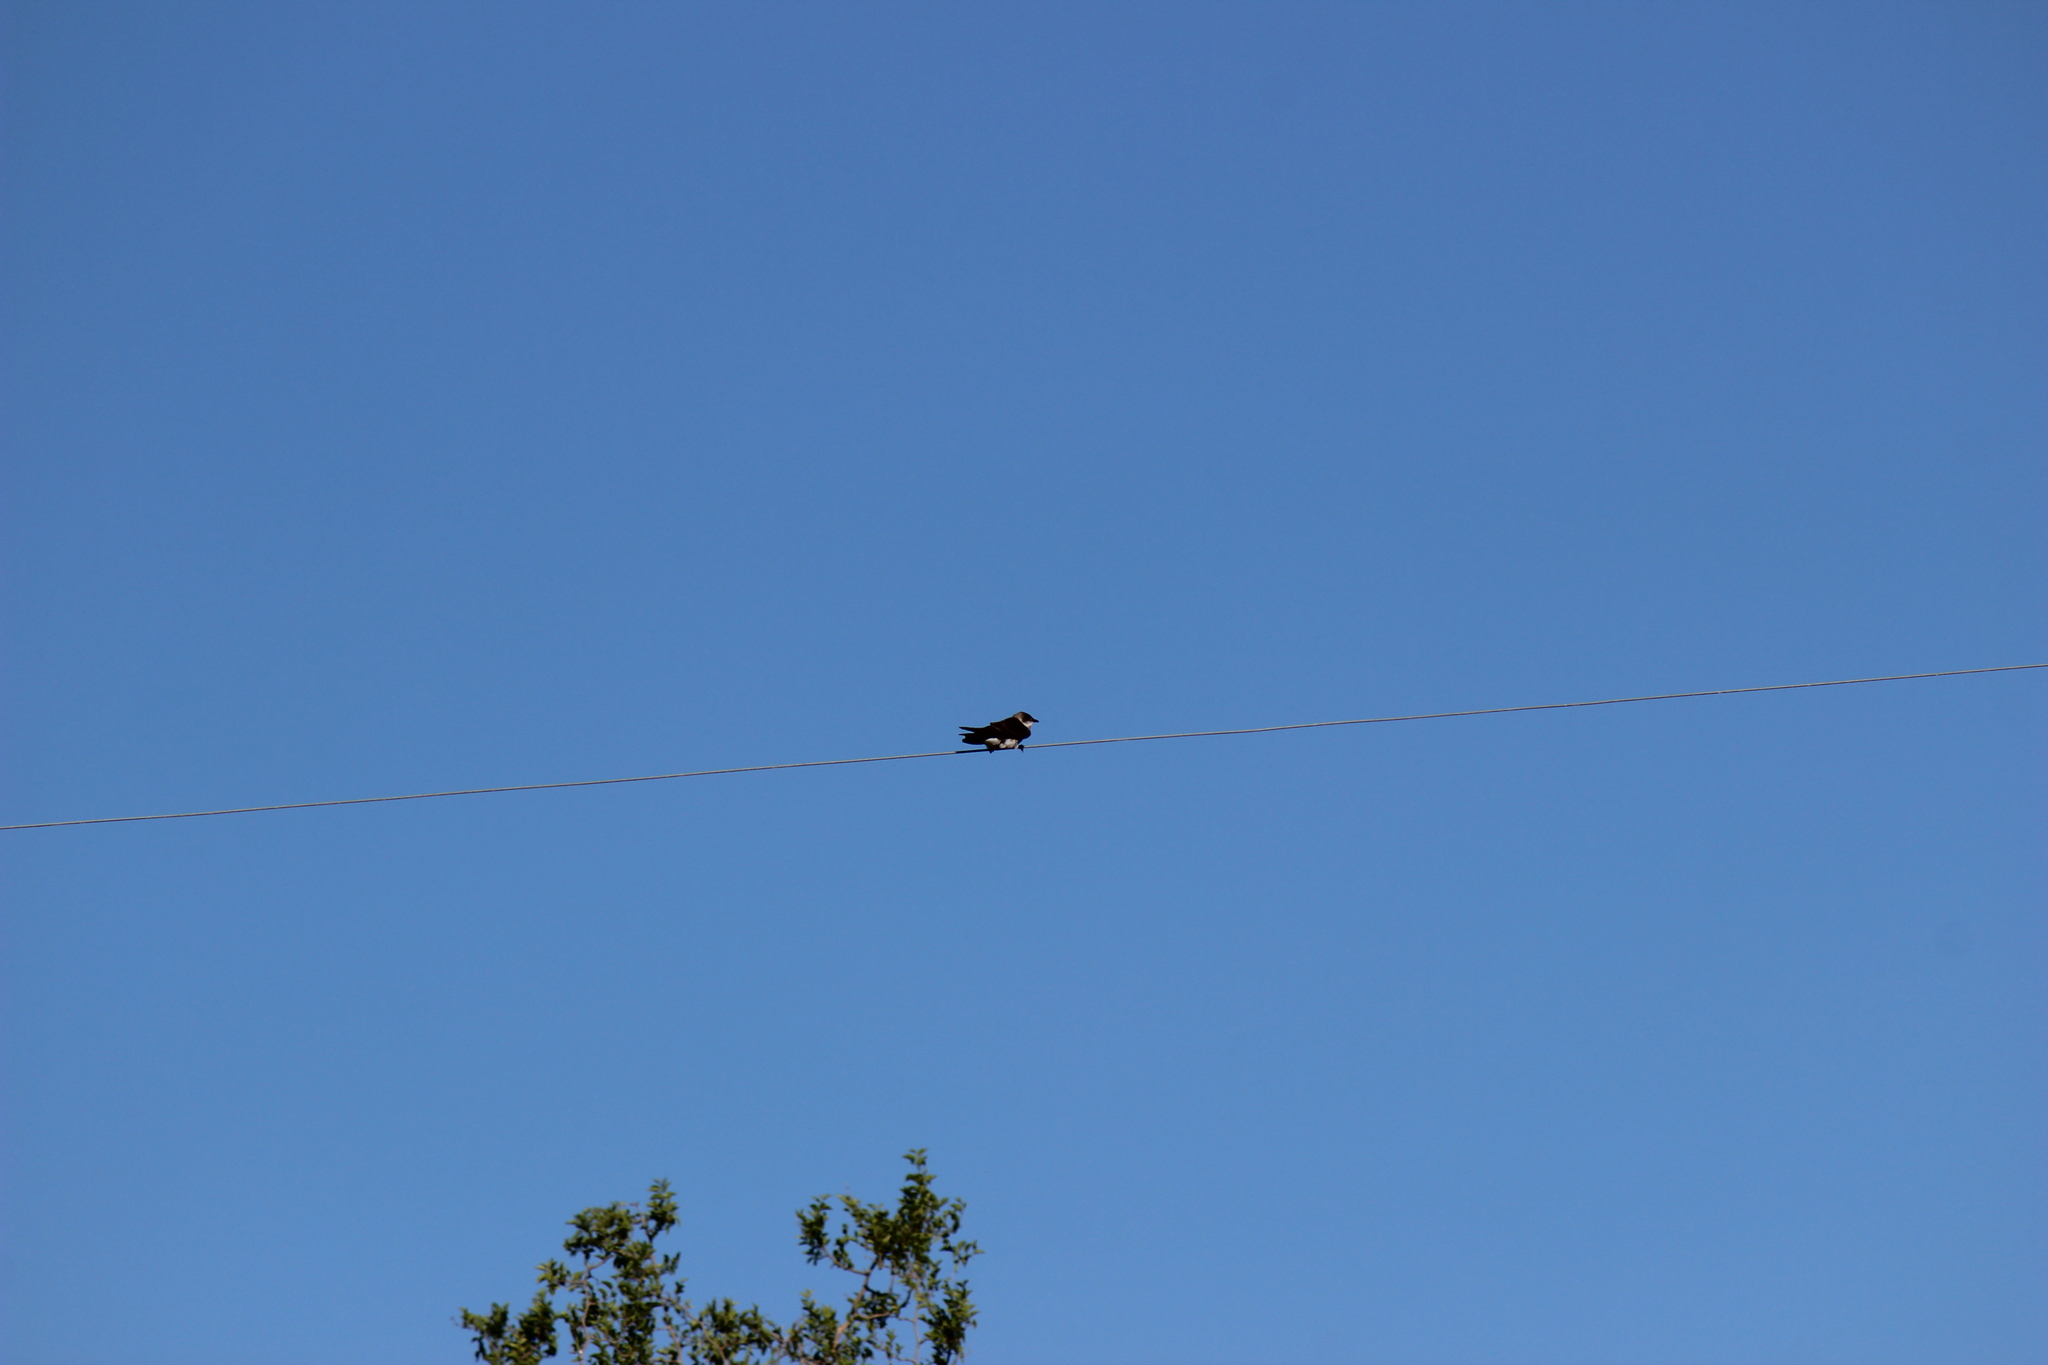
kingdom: Animalia
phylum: Chordata
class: Aves
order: Passeriformes
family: Hirundinidae
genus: Progne
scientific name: Progne tapera
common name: Brown-chested martin
